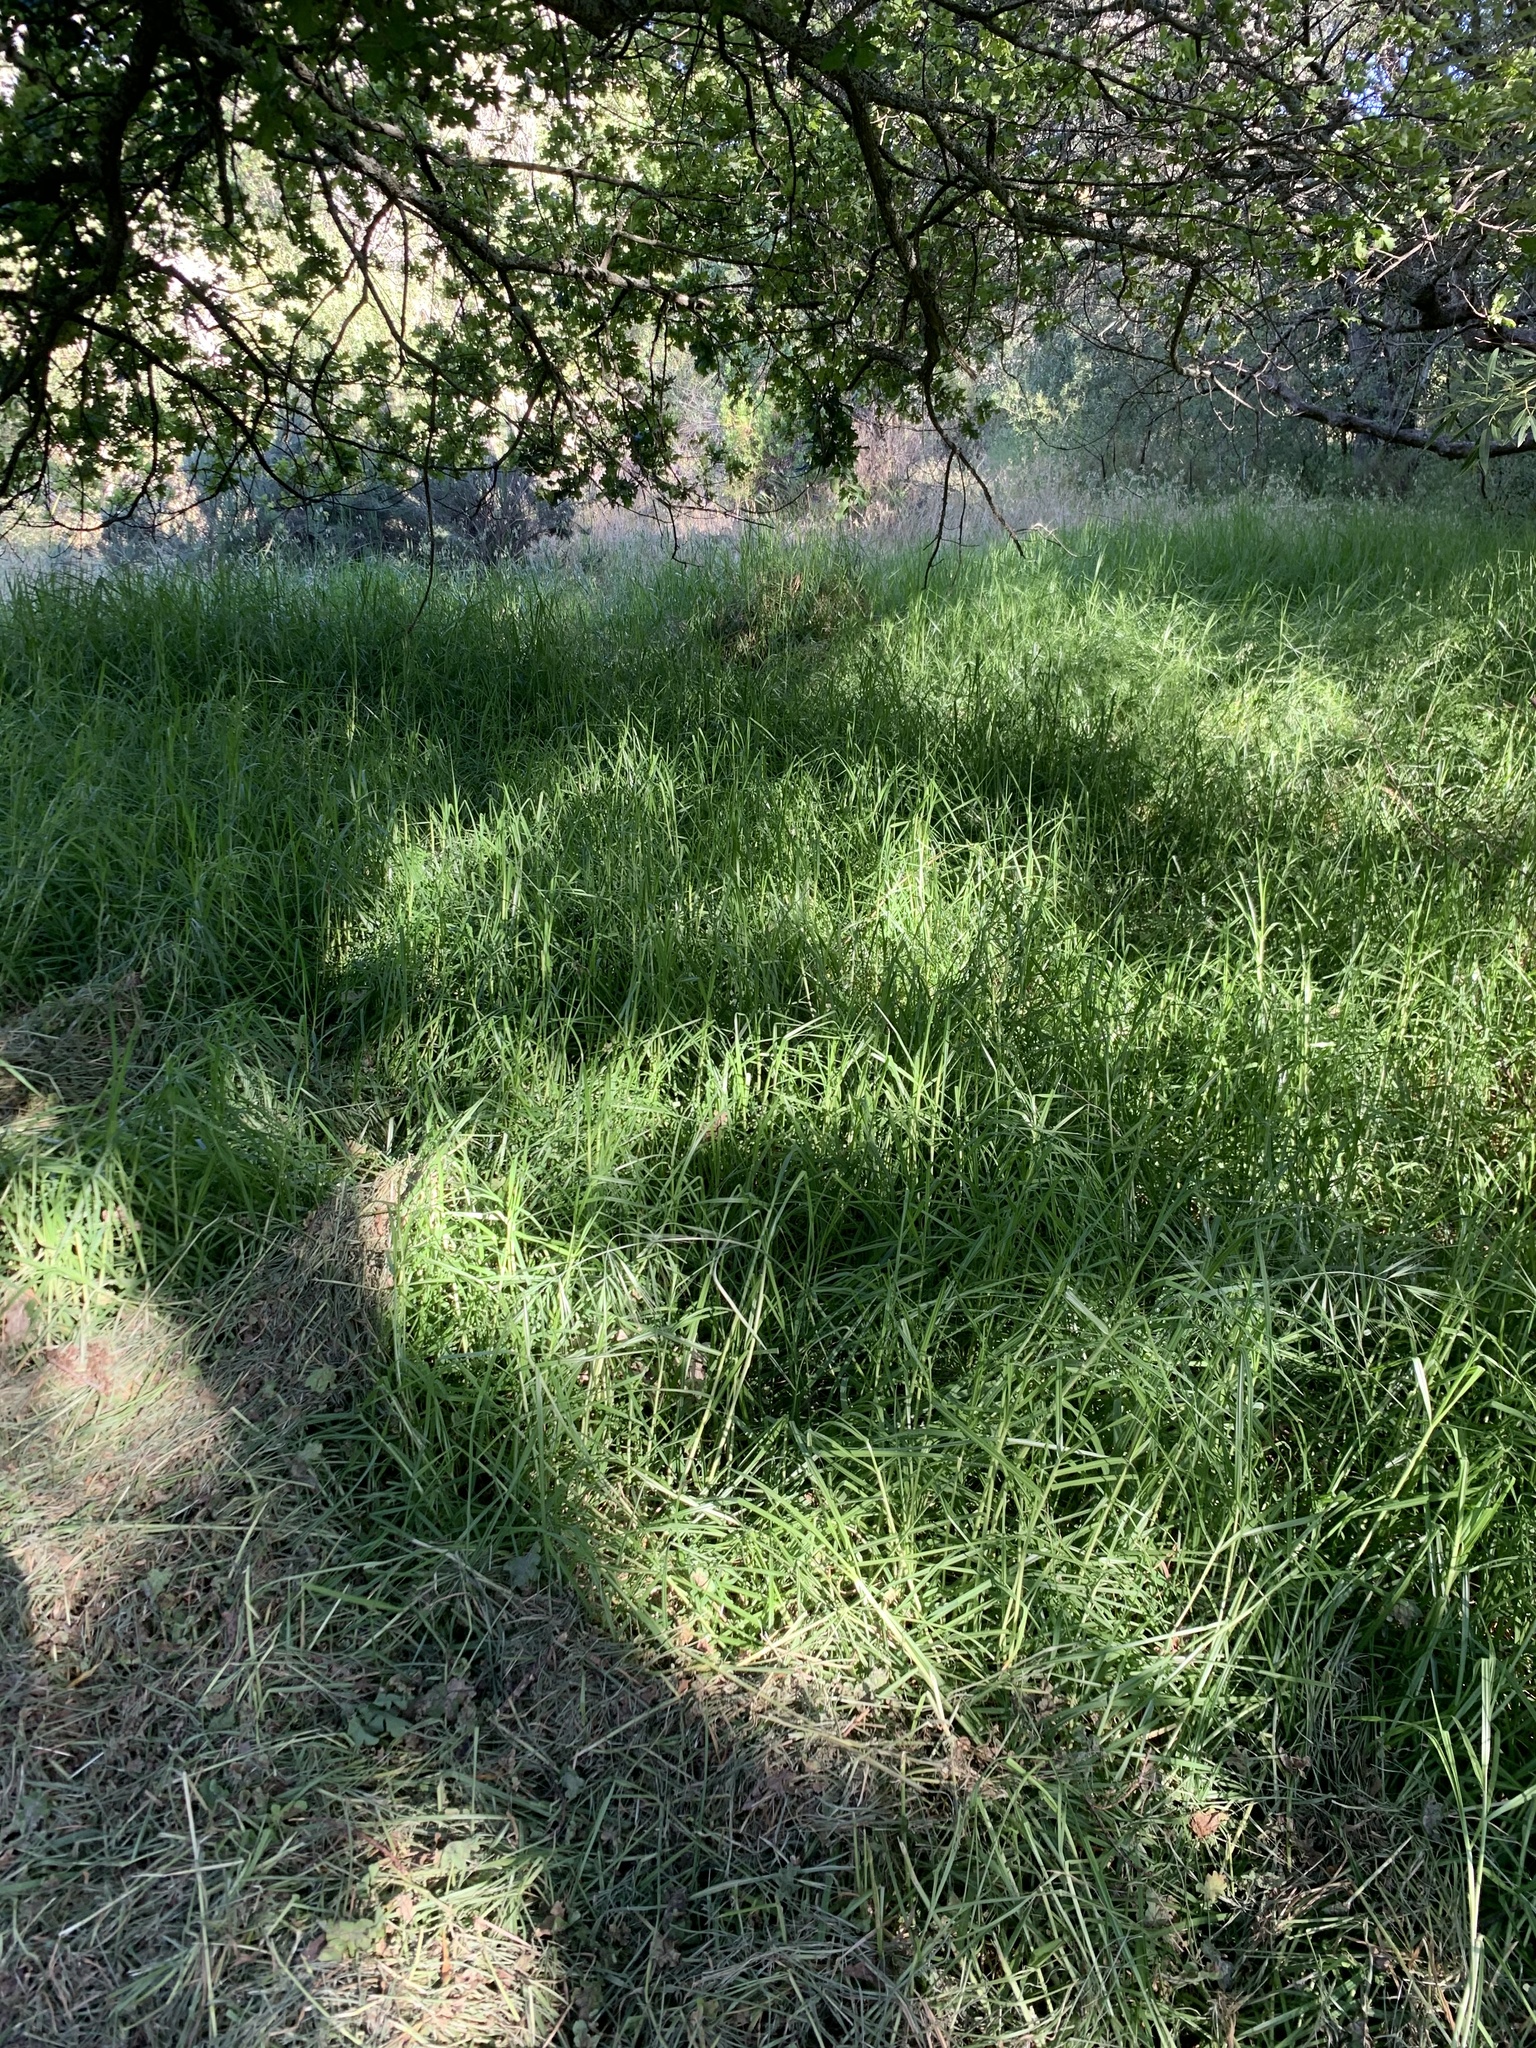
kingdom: Plantae
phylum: Tracheophyta
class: Liliopsida
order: Poales
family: Poaceae
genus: Cenchrus
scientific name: Cenchrus clandestinus
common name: Kikuyugrass
